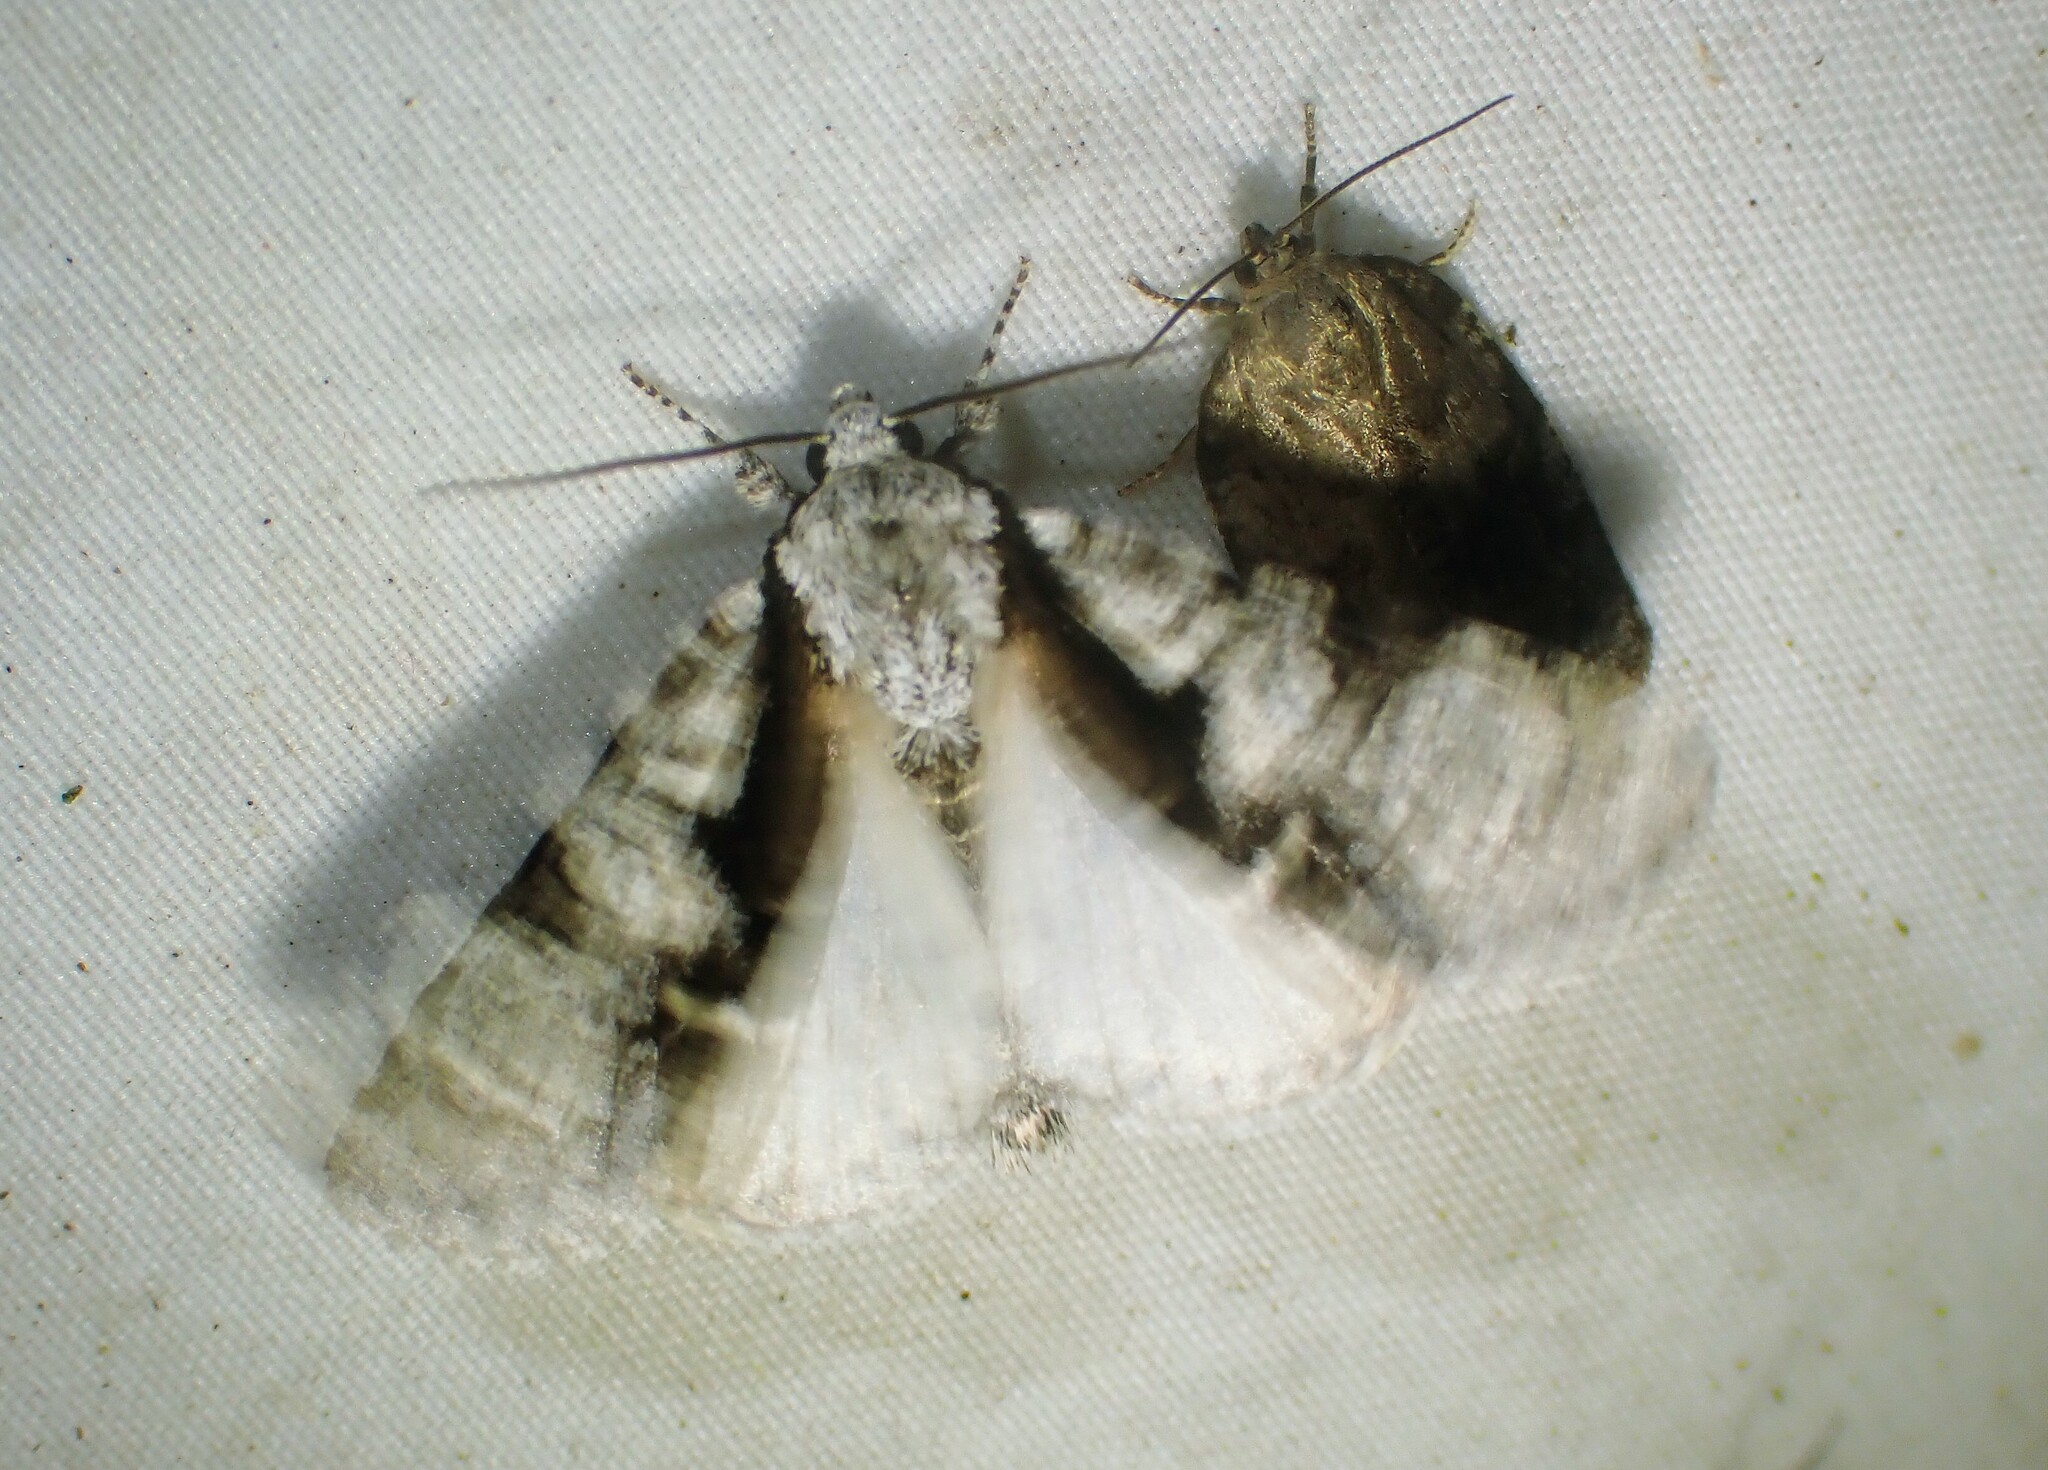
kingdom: Animalia
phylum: Arthropoda
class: Insecta
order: Lepidoptera
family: Noctuidae
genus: Acronicta
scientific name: Acronicta funeralis
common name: Funerary dagger
